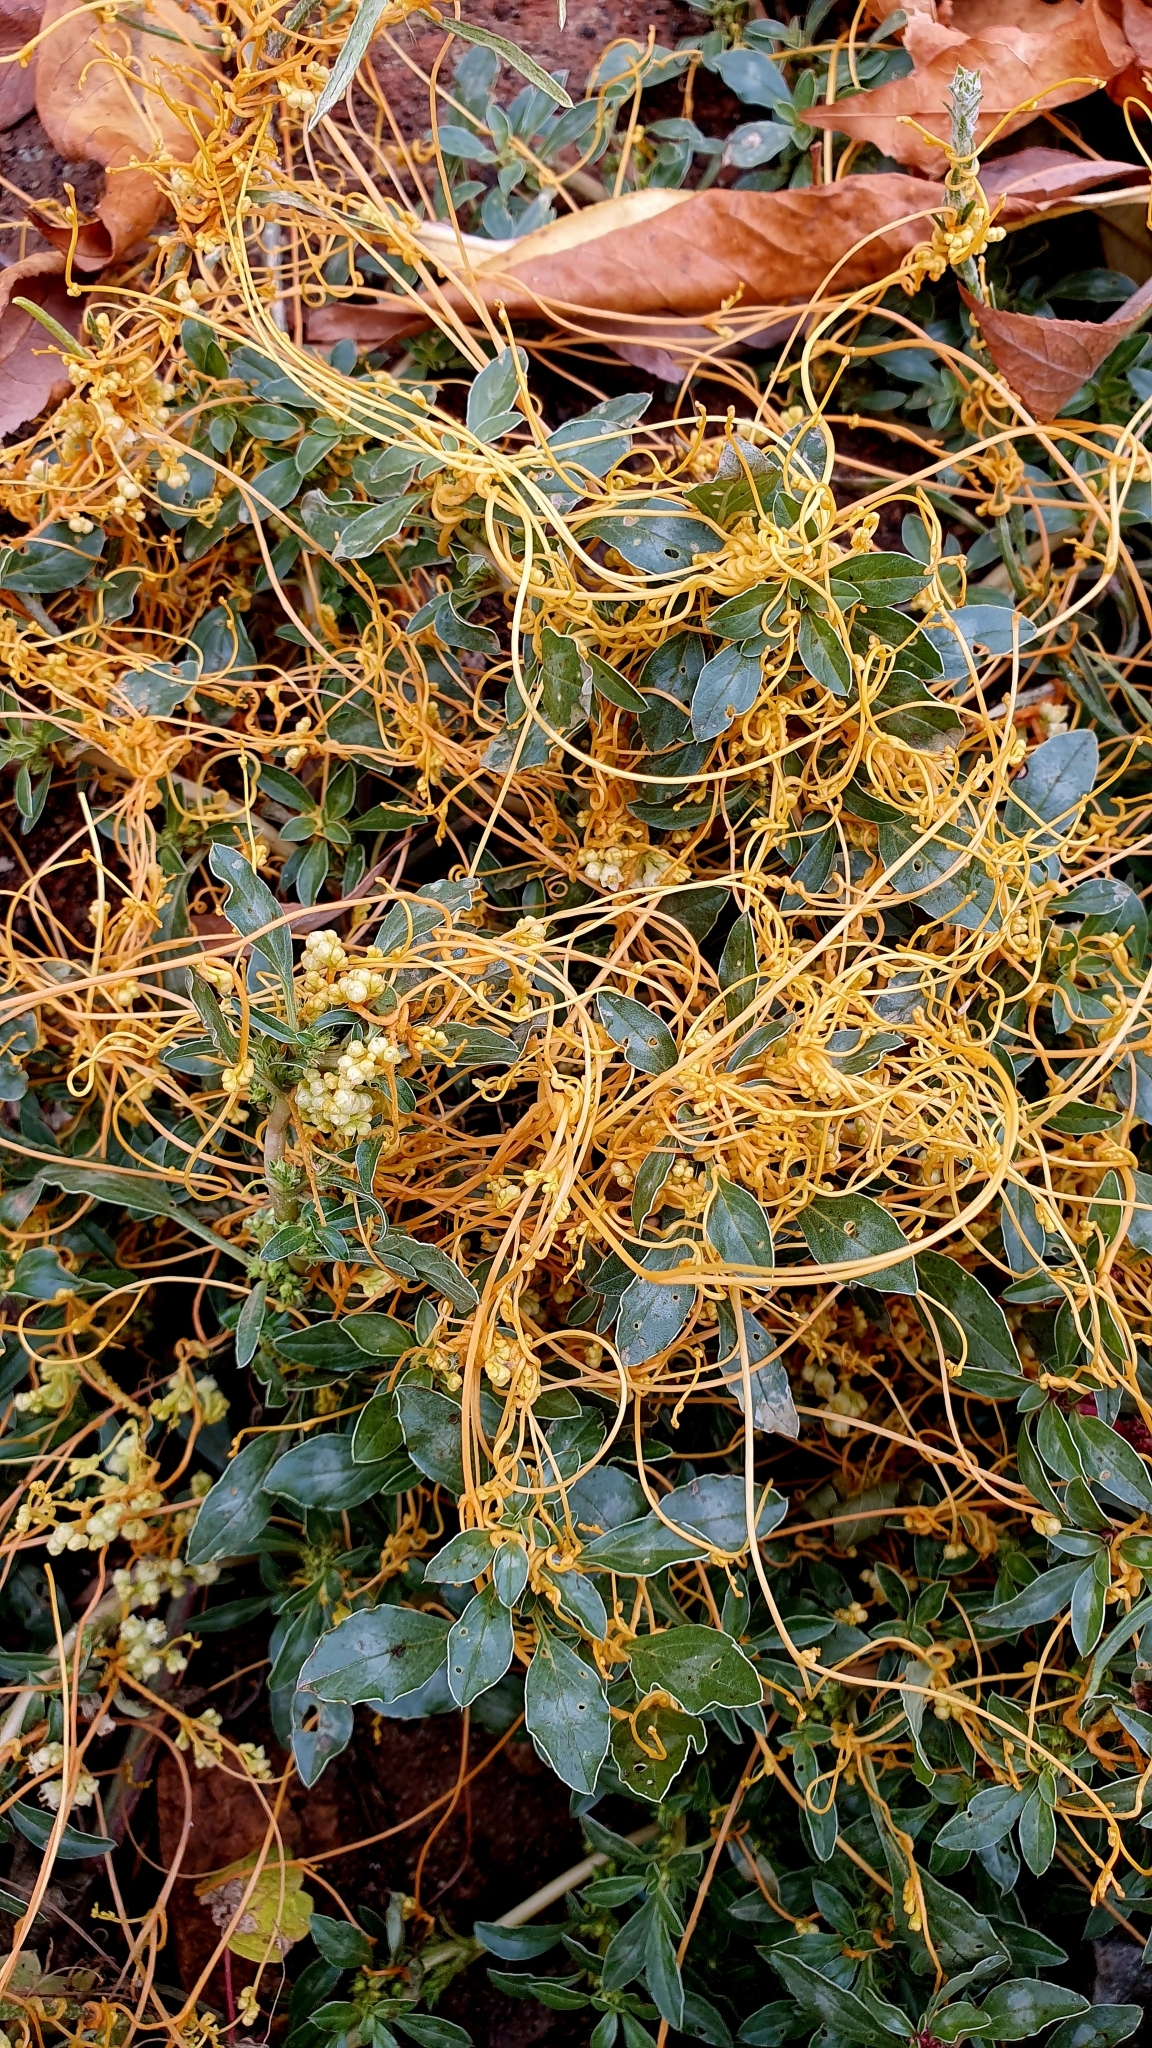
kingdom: Plantae
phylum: Tracheophyta
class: Magnoliopsida
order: Solanales
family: Convolvulaceae
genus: Cuscuta
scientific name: Cuscuta campestris
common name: Yellow dodder
